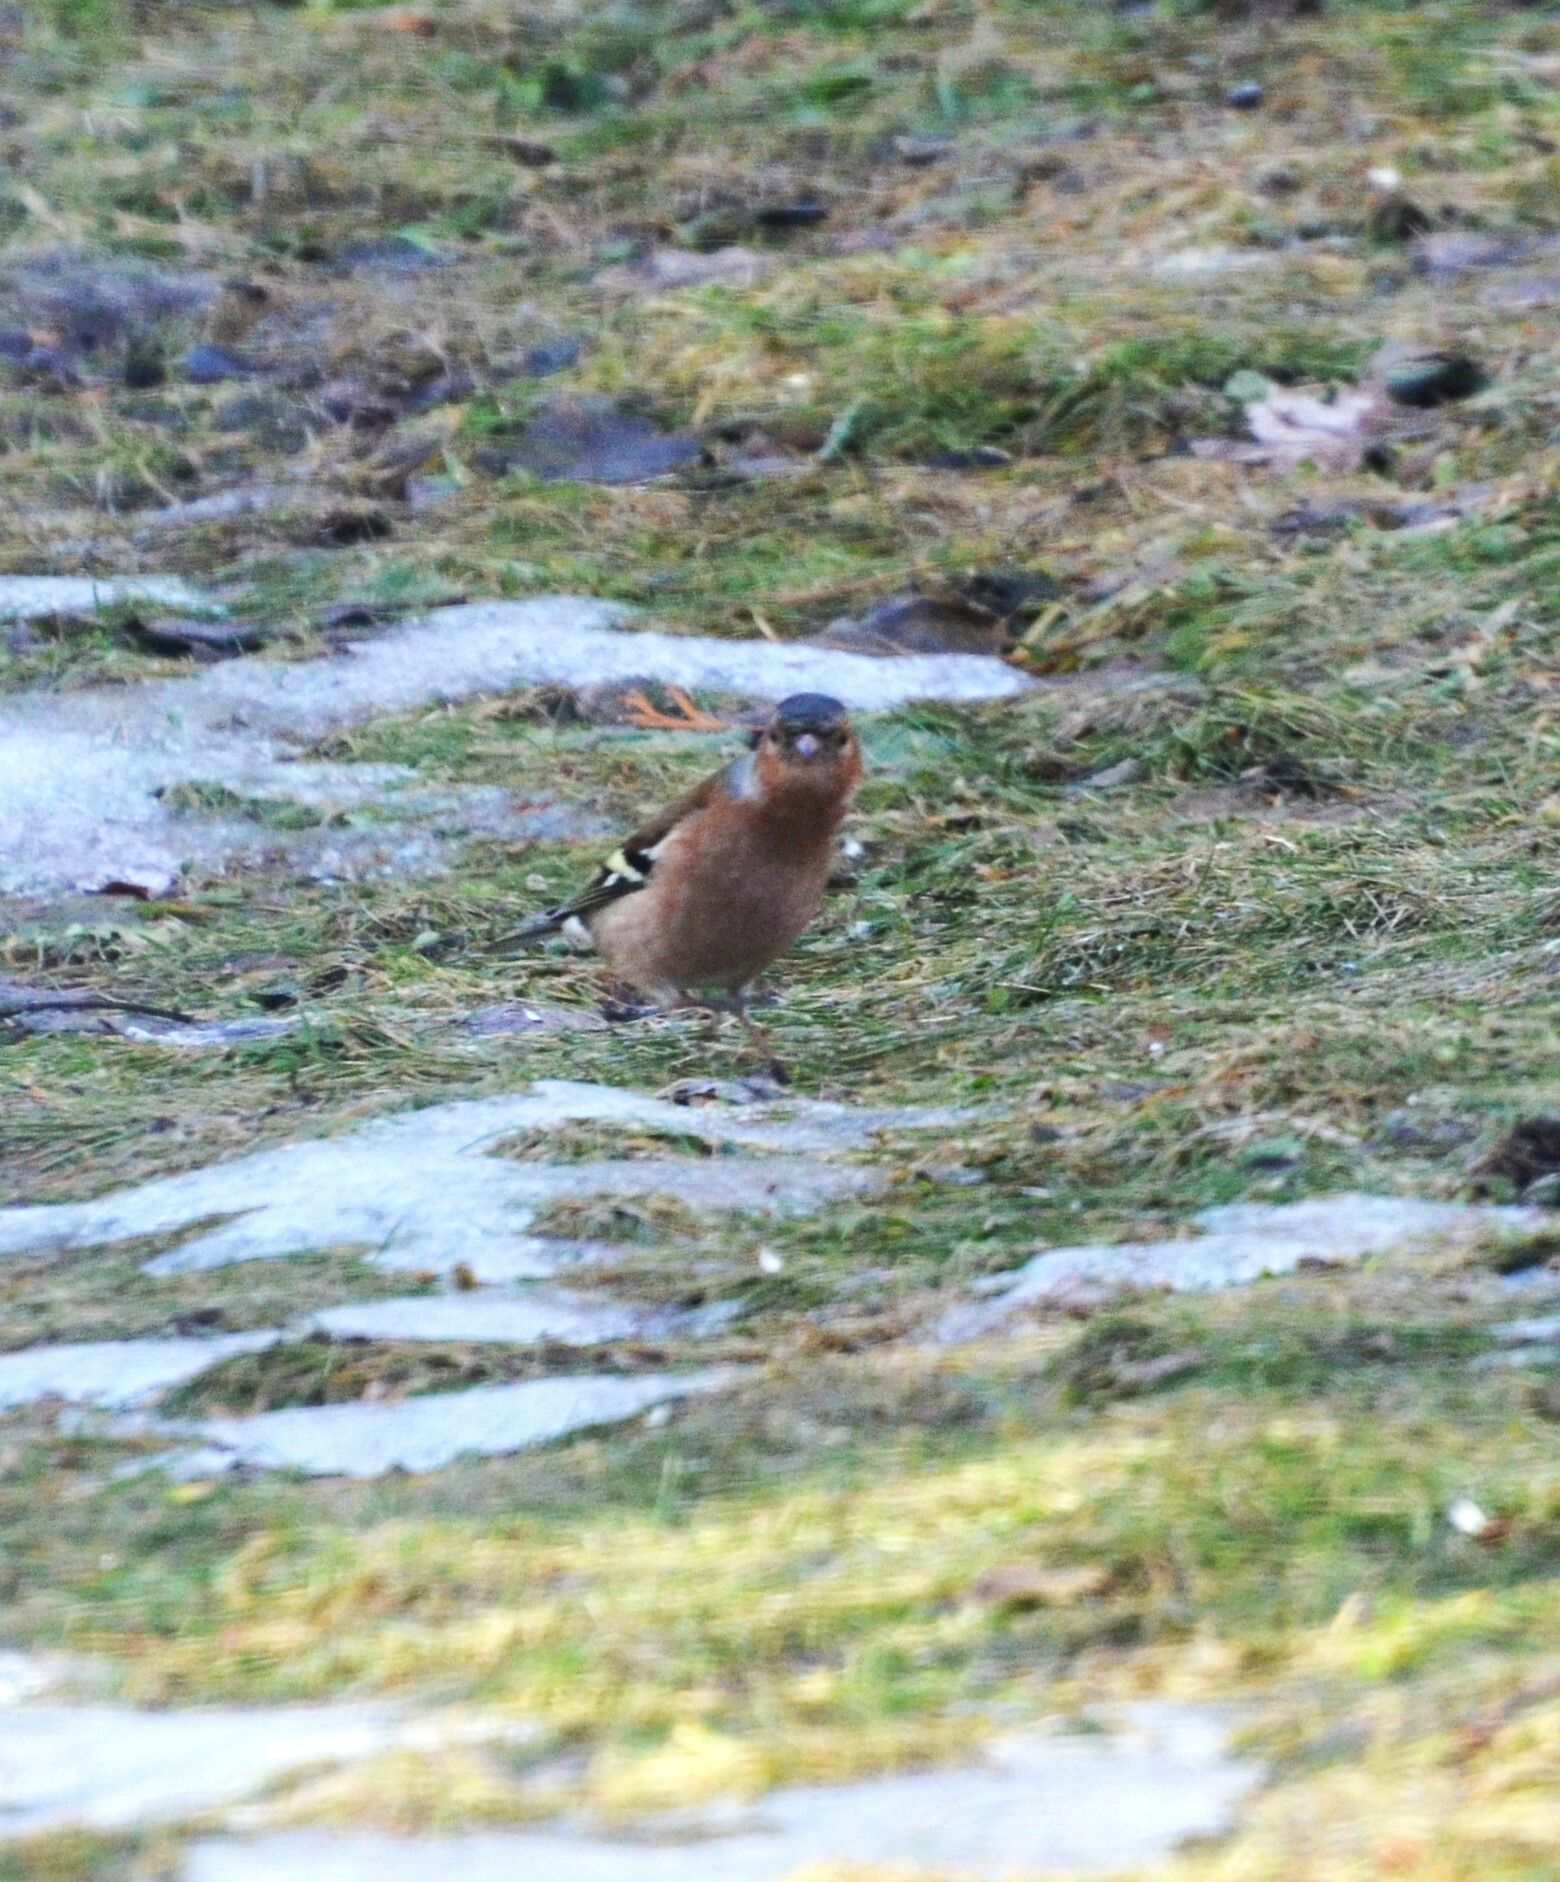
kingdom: Animalia
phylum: Chordata
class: Aves
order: Passeriformes
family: Fringillidae
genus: Fringilla
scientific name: Fringilla coelebs
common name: Common chaffinch
